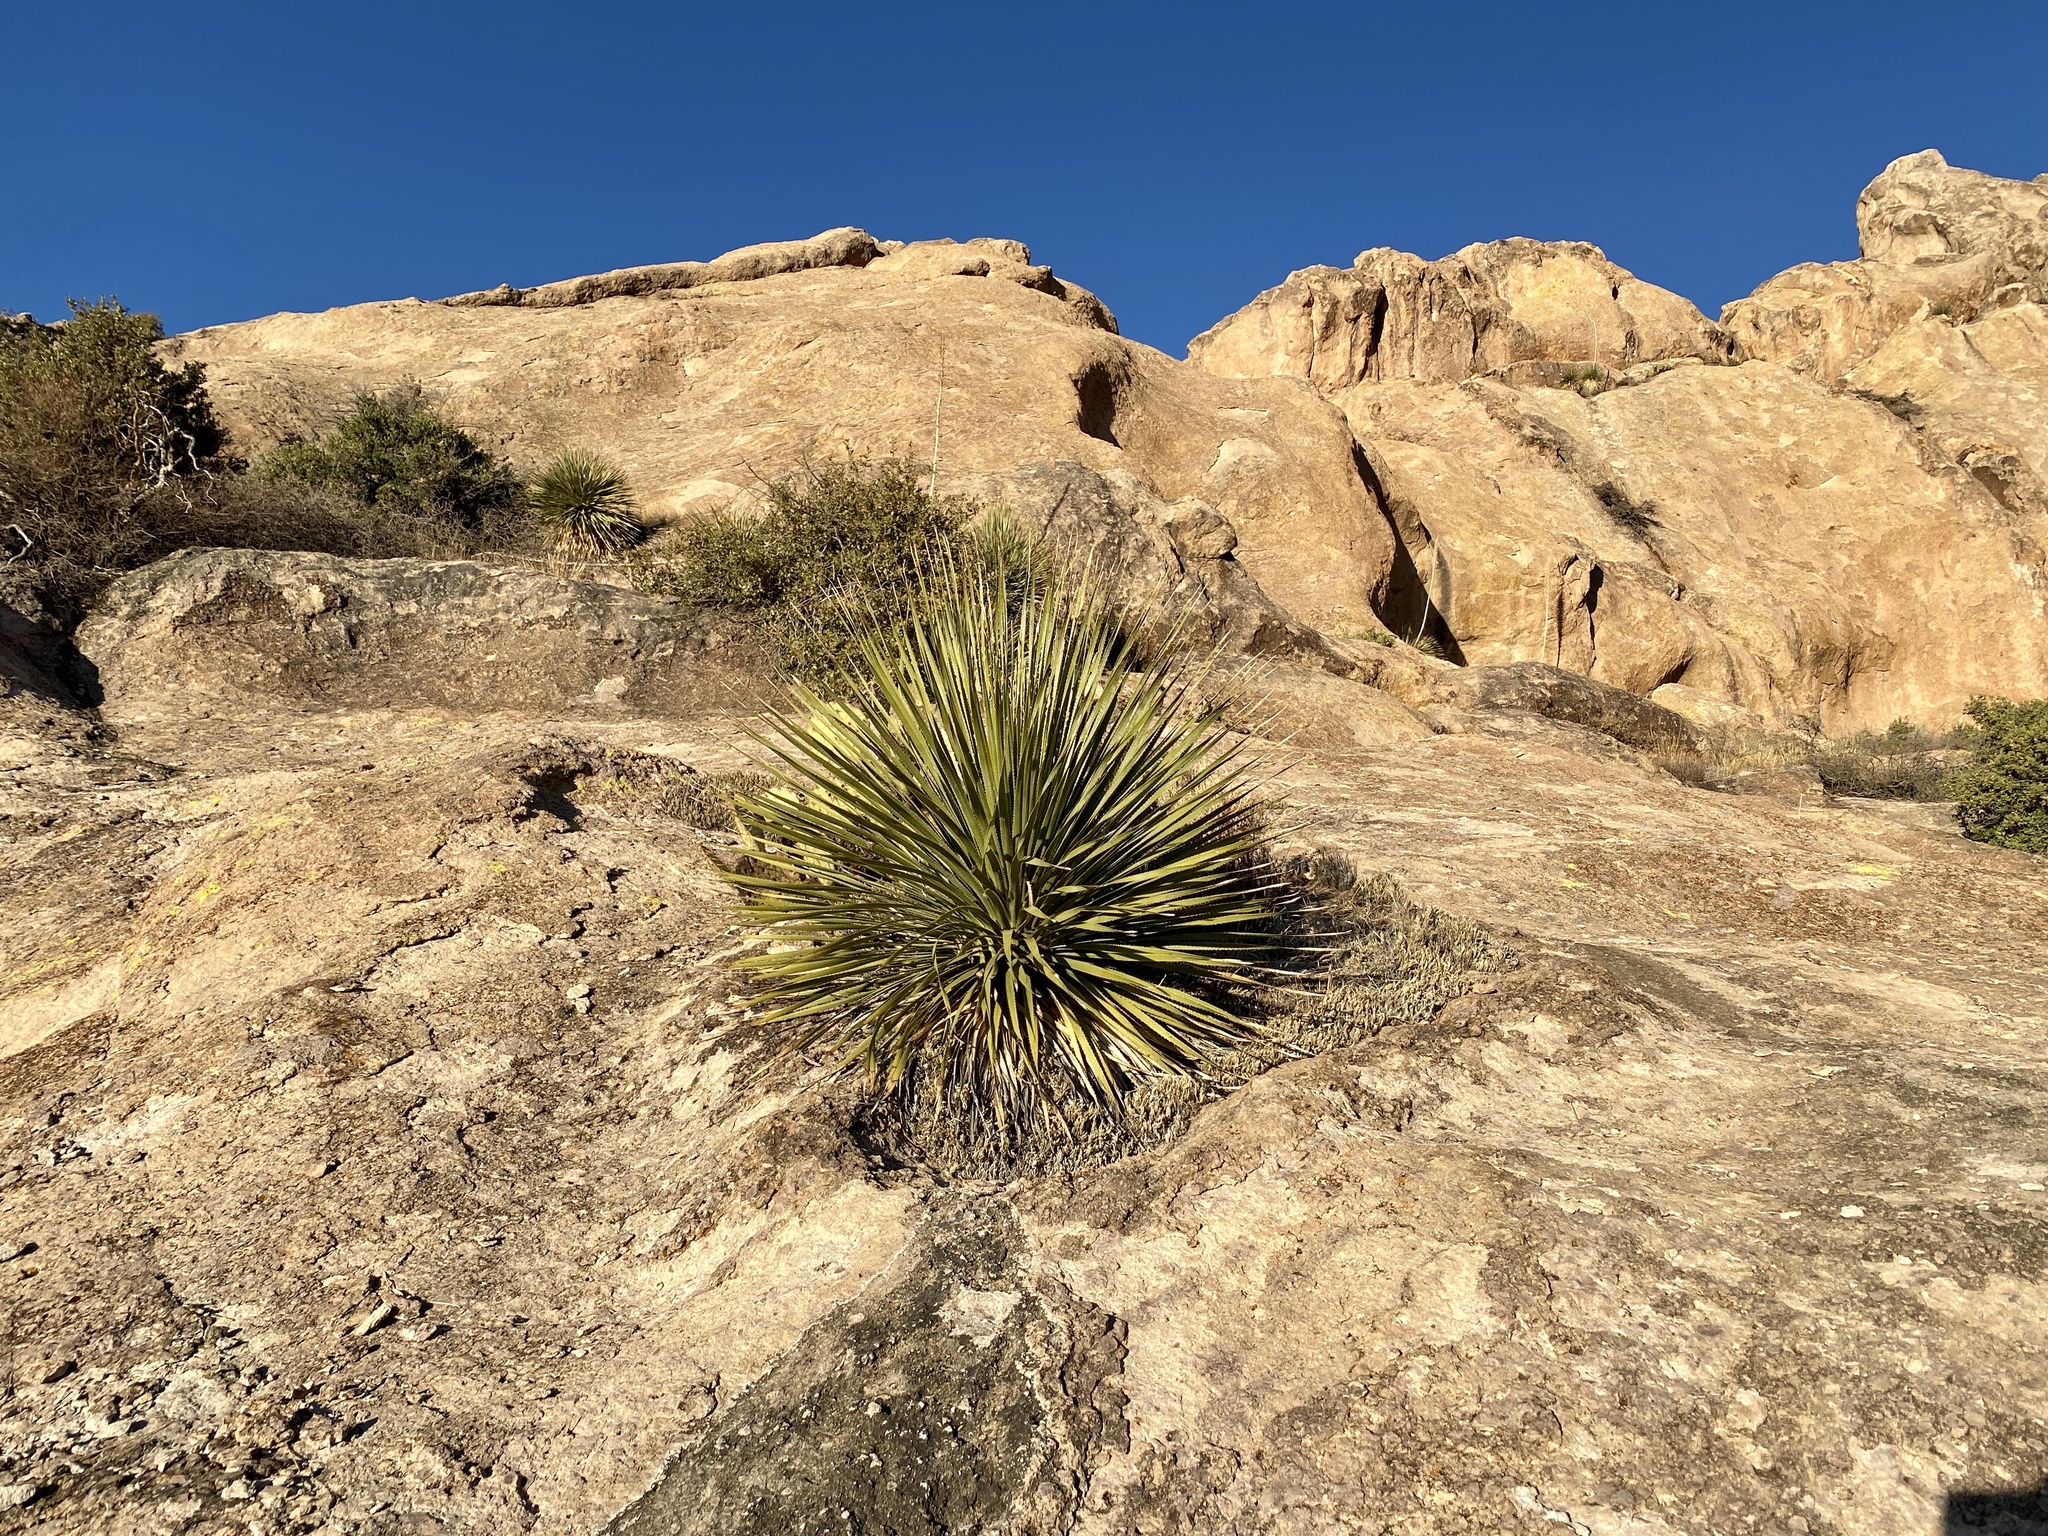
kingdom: Plantae
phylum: Tracheophyta
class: Liliopsida
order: Asparagales
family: Asparagaceae
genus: Dasylirion
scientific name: Dasylirion wheeleri
